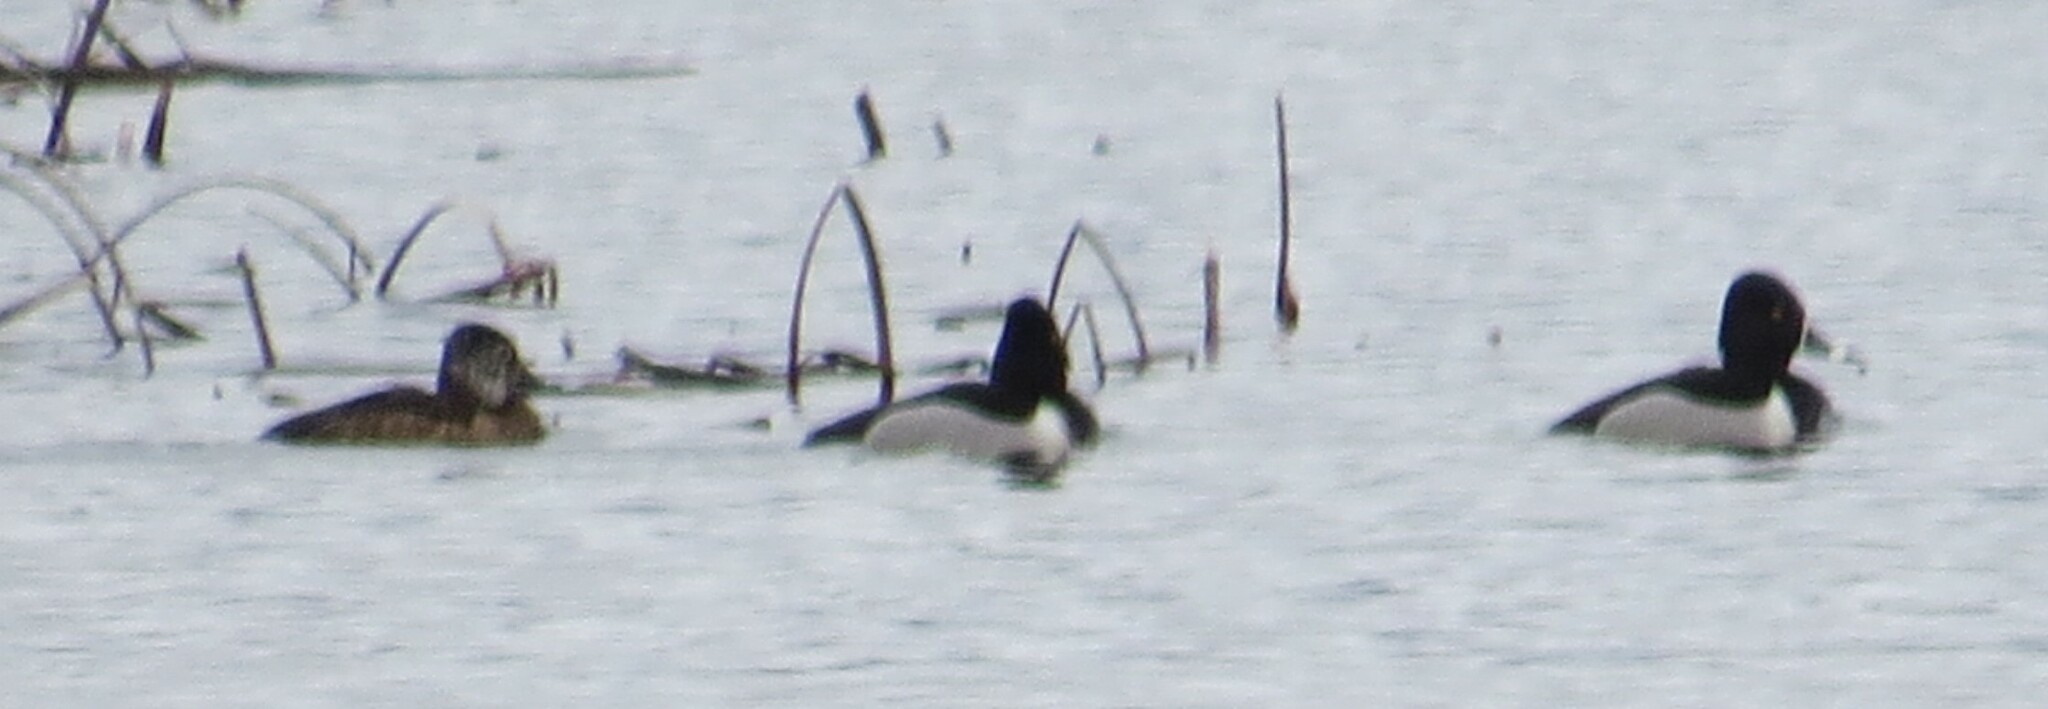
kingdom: Animalia
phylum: Chordata
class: Aves
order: Anseriformes
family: Anatidae
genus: Aythya
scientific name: Aythya collaris
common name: Ring-necked duck
